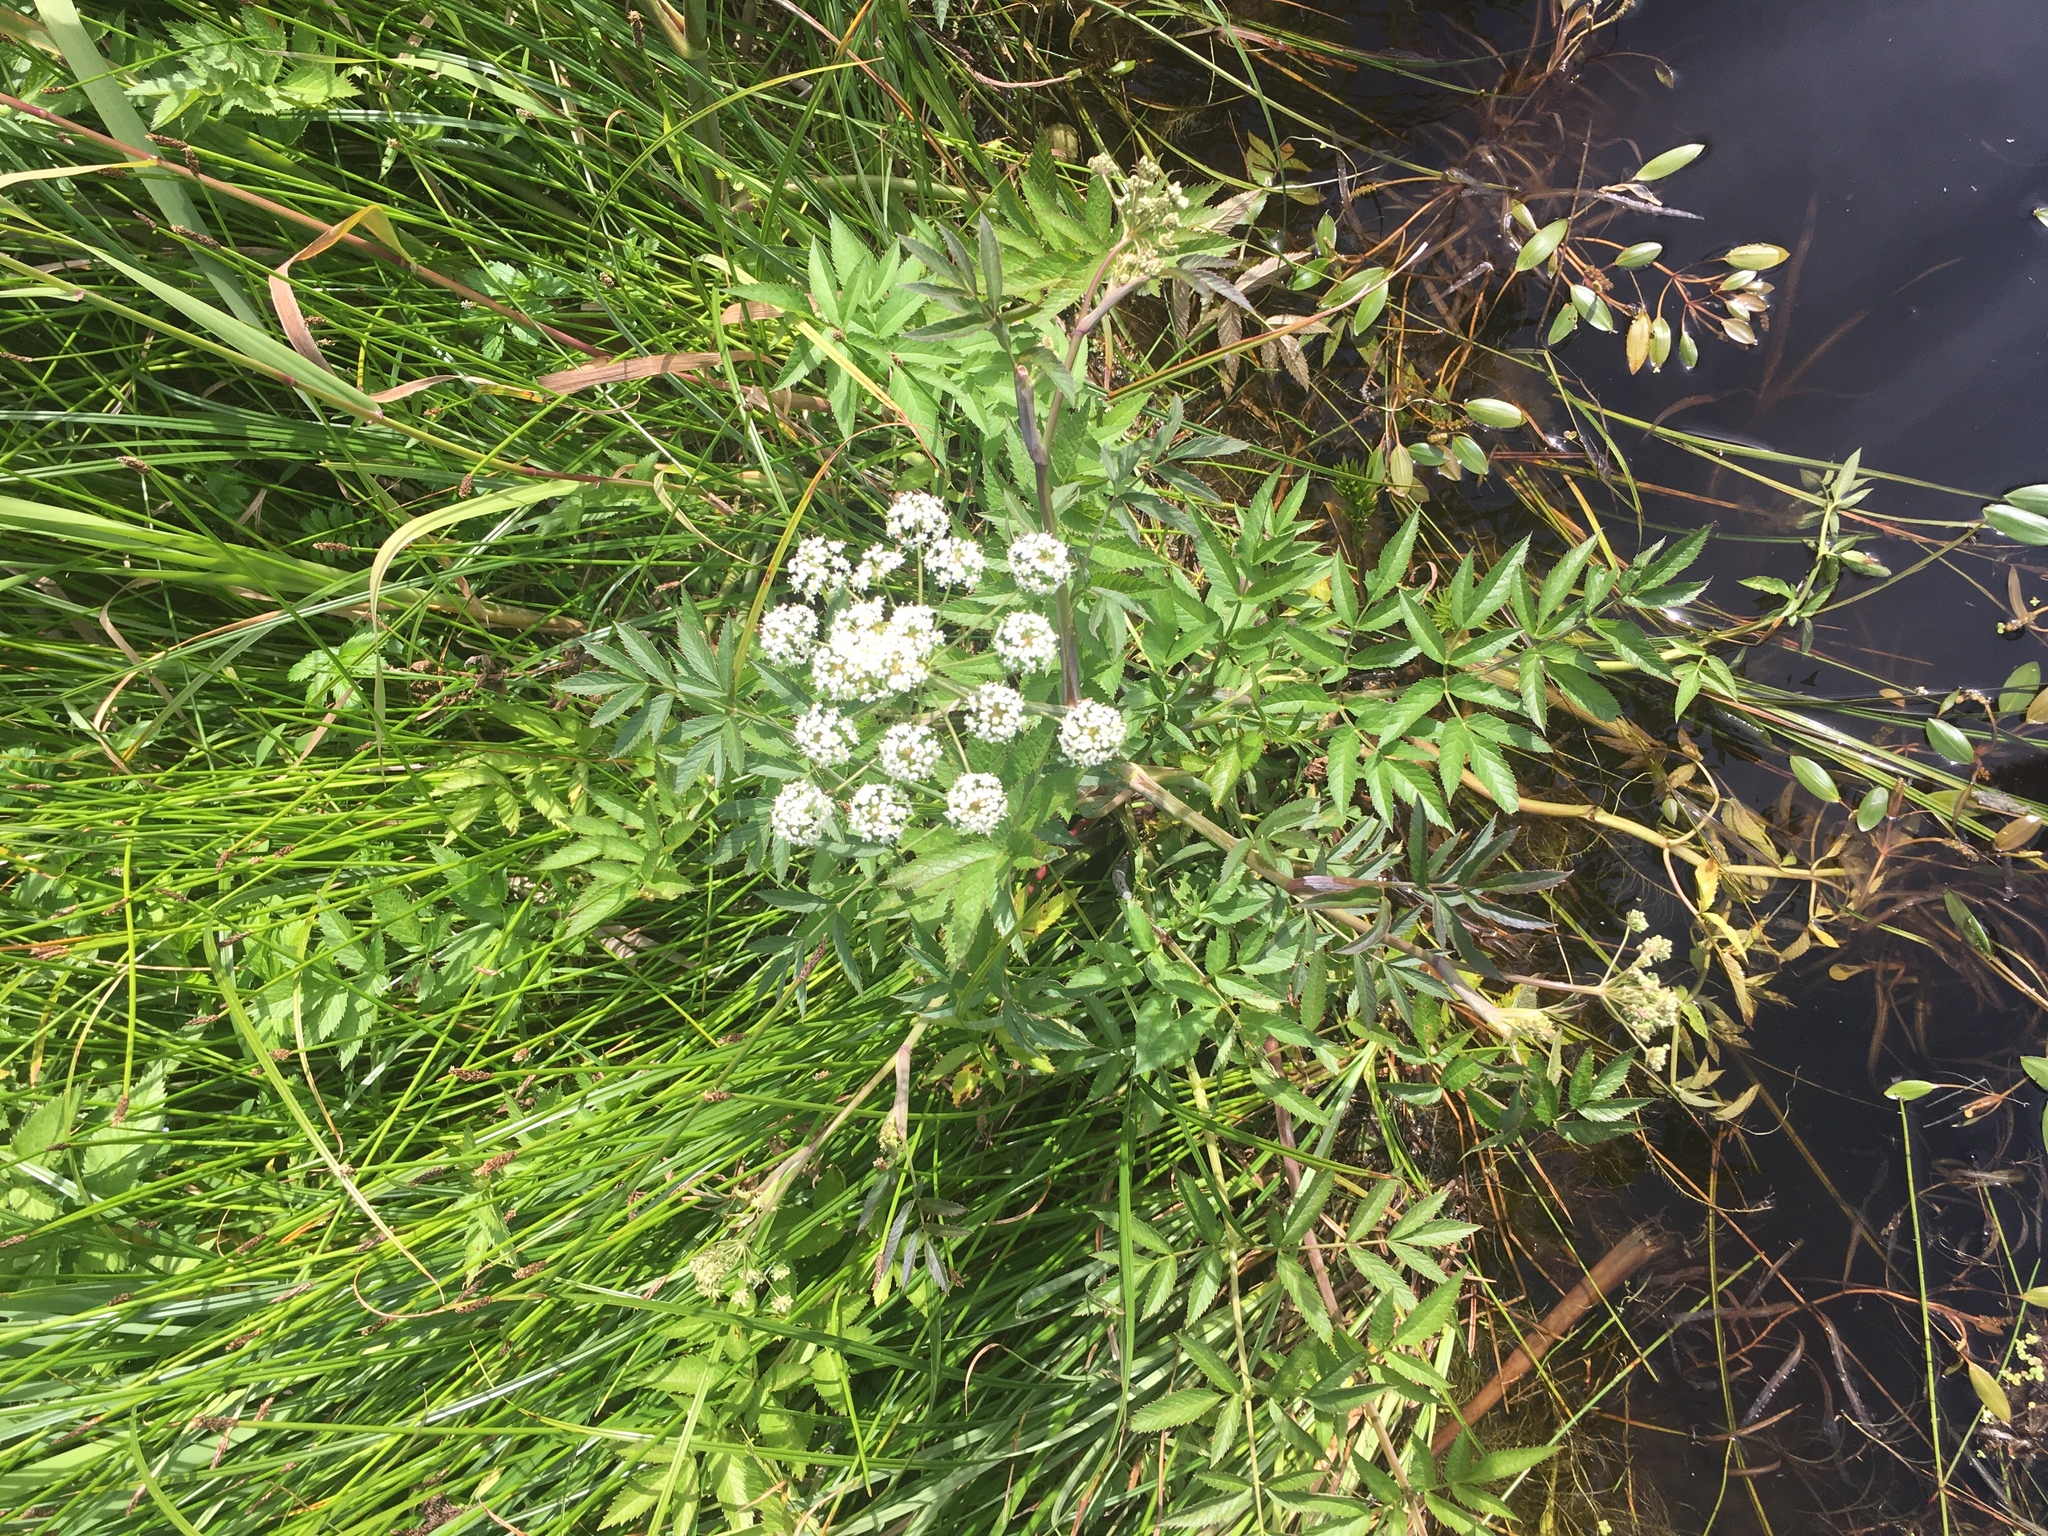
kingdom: Plantae
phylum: Tracheophyta
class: Magnoliopsida
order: Apiales
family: Apiaceae
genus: Cicuta
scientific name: Cicuta maculata
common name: Spotted cowbane
